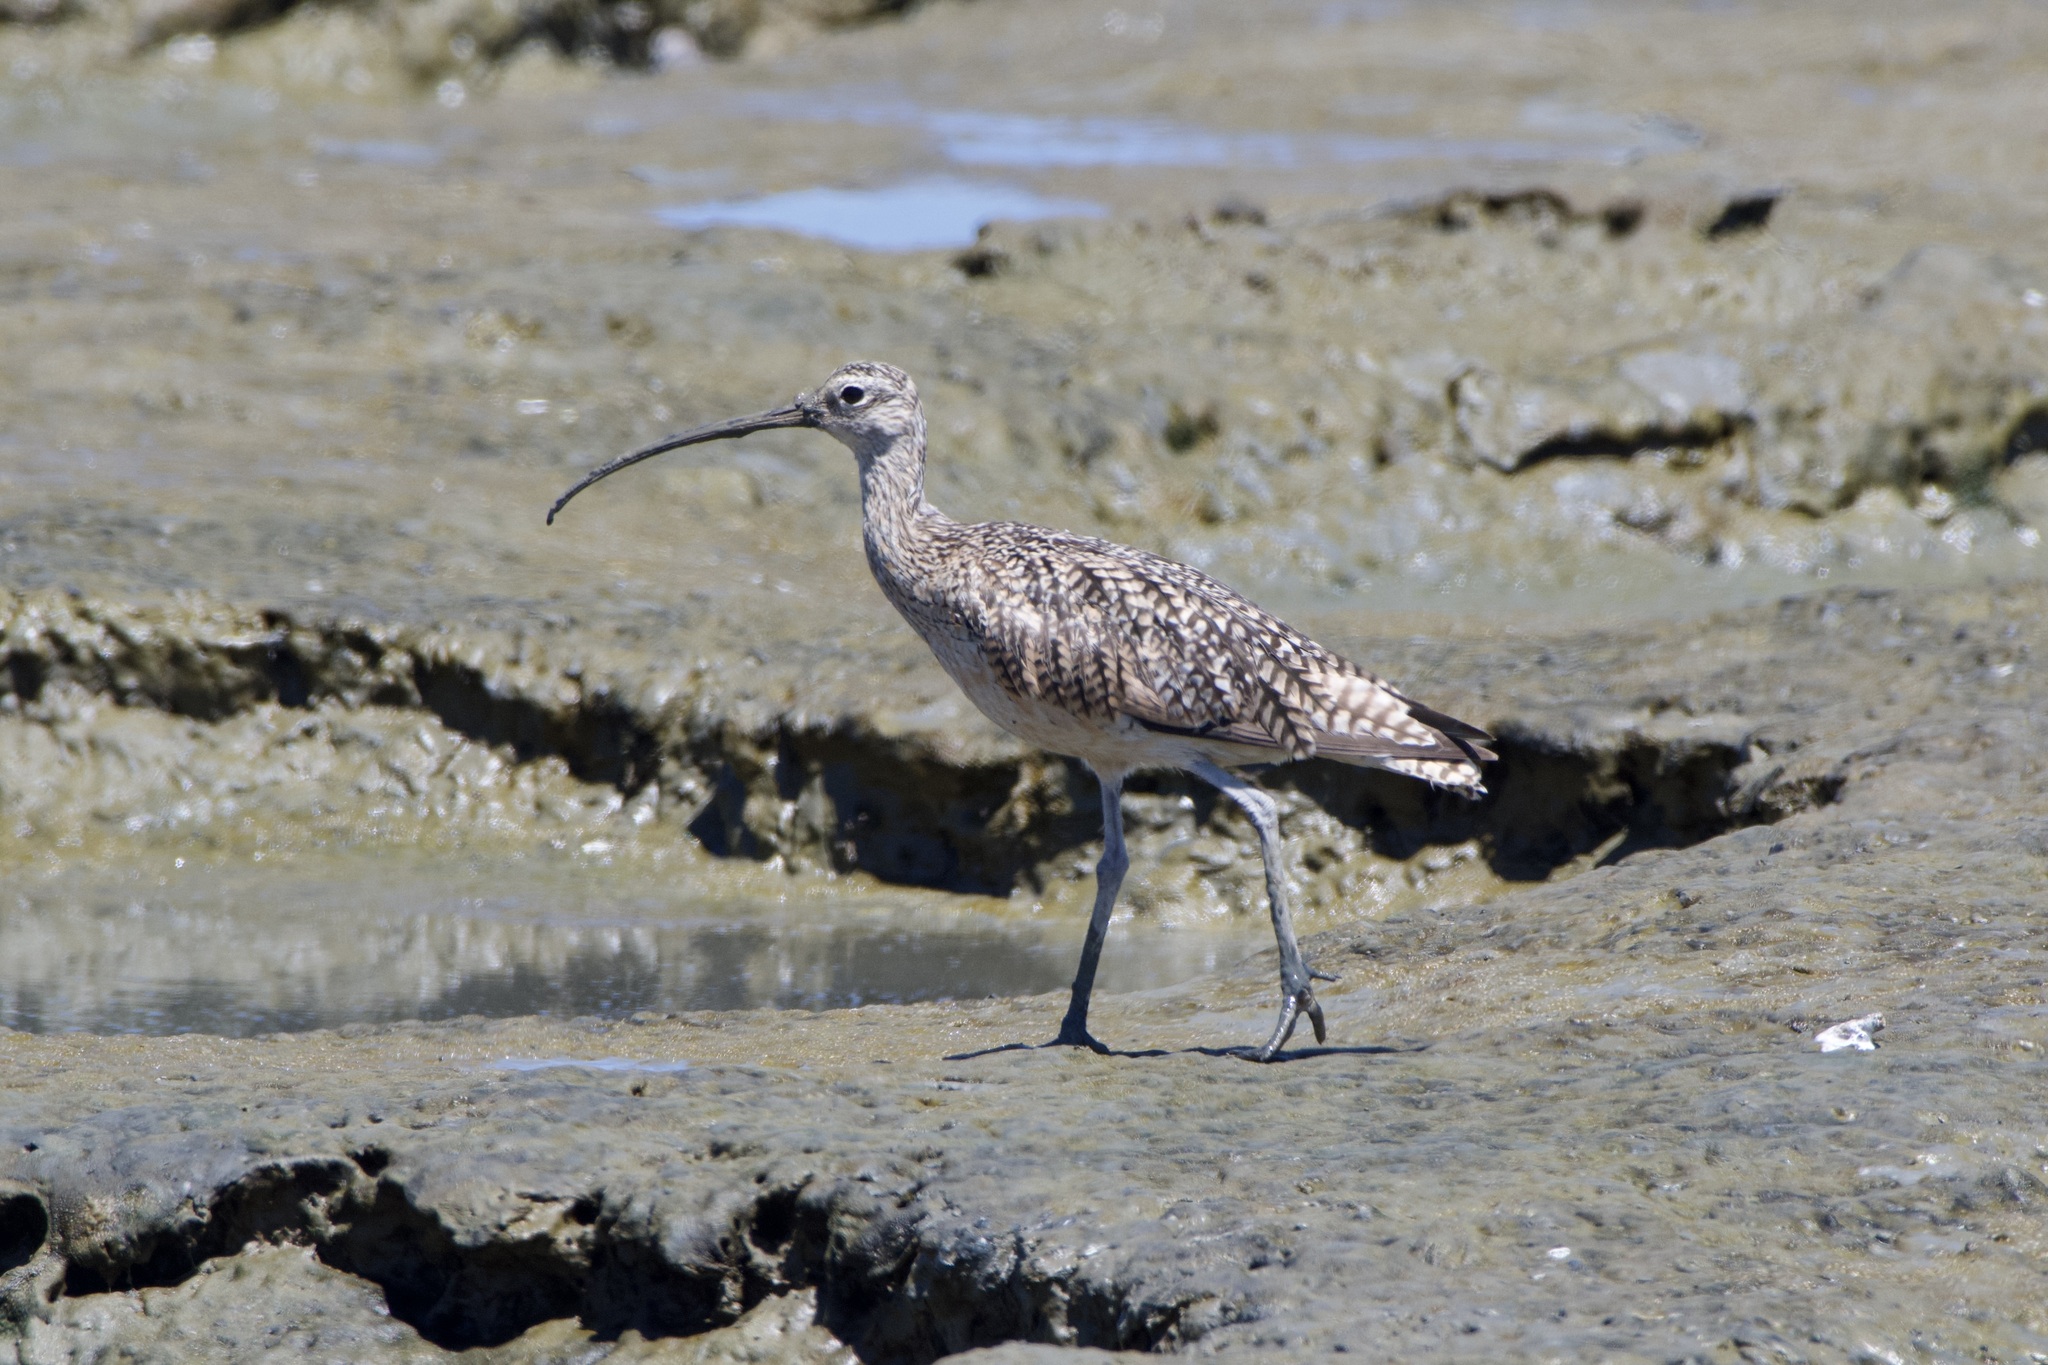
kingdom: Animalia
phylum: Chordata
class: Aves
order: Charadriiformes
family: Scolopacidae
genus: Numenius
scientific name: Numenius americanus
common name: Long-billed curlew
